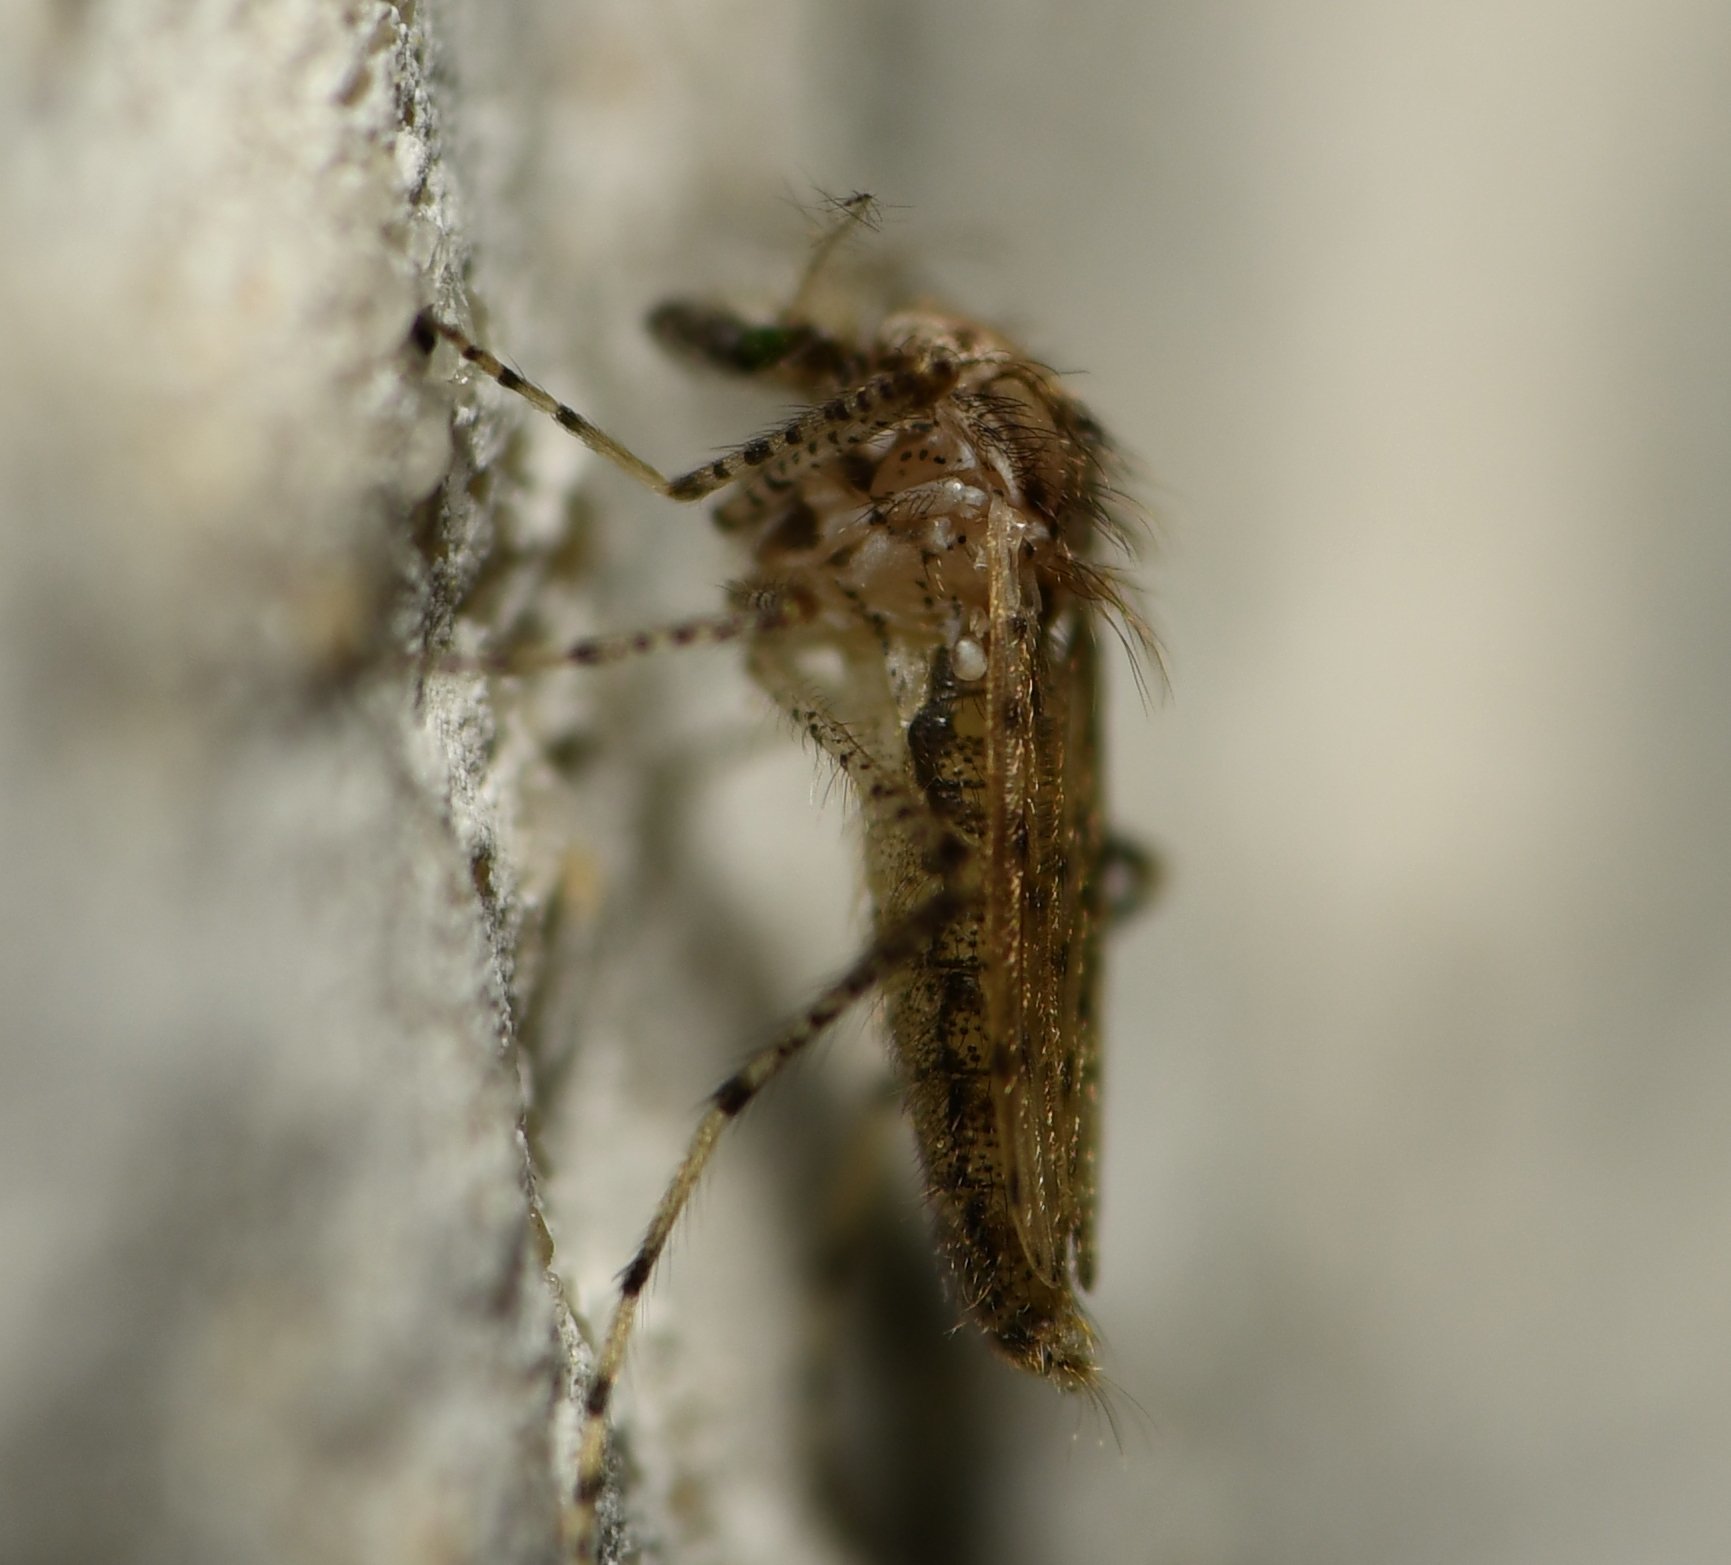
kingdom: Animalia
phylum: Arthropoda
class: Insecta
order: Diptera
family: Chaoboridae
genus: Chaoborus
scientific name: Chaoborus punctipennis
